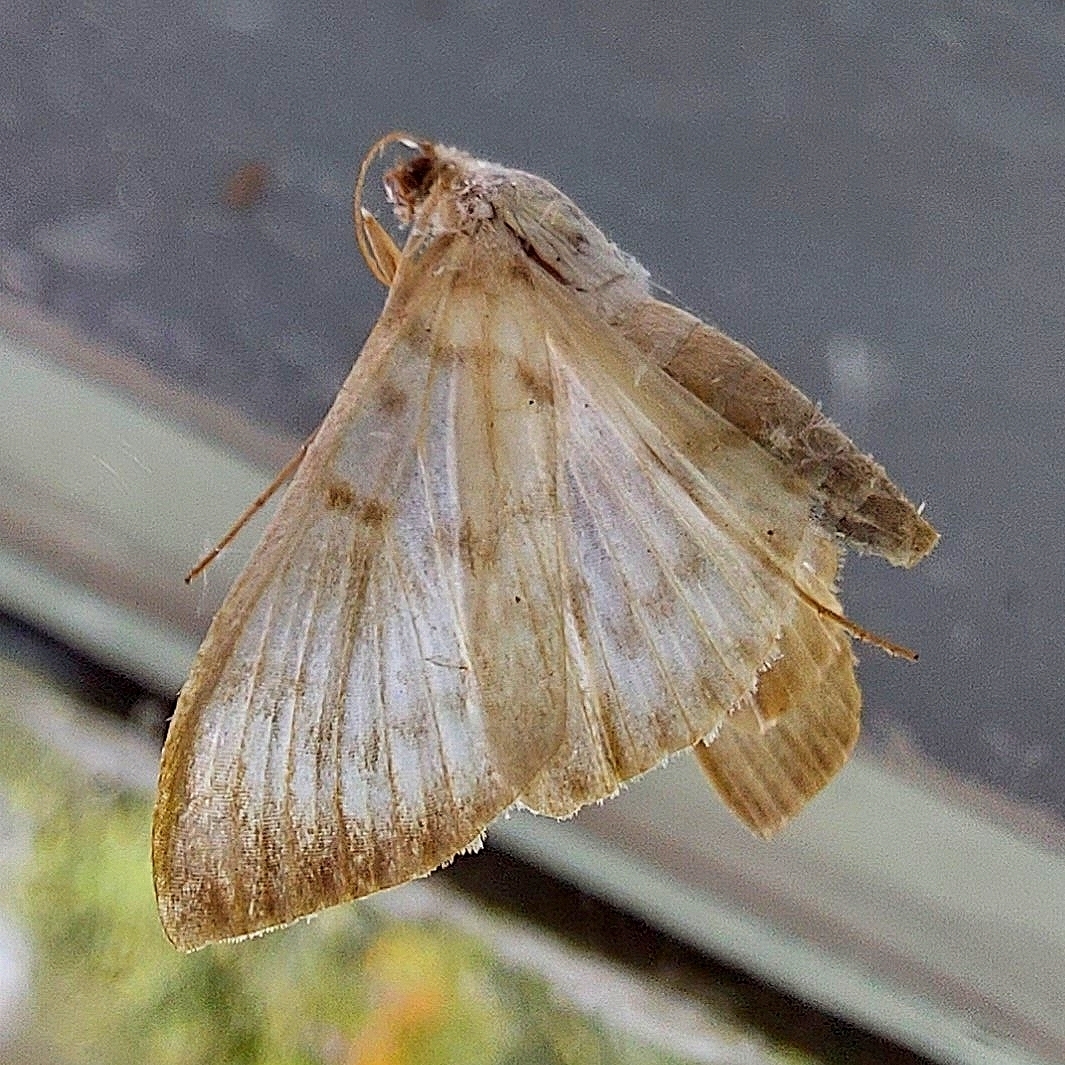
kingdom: Animalia
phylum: Arthropoda
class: Insecta
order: Lepidoptera
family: Crambidae
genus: Patania
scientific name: Patania ruralis
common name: Mother of pearl
